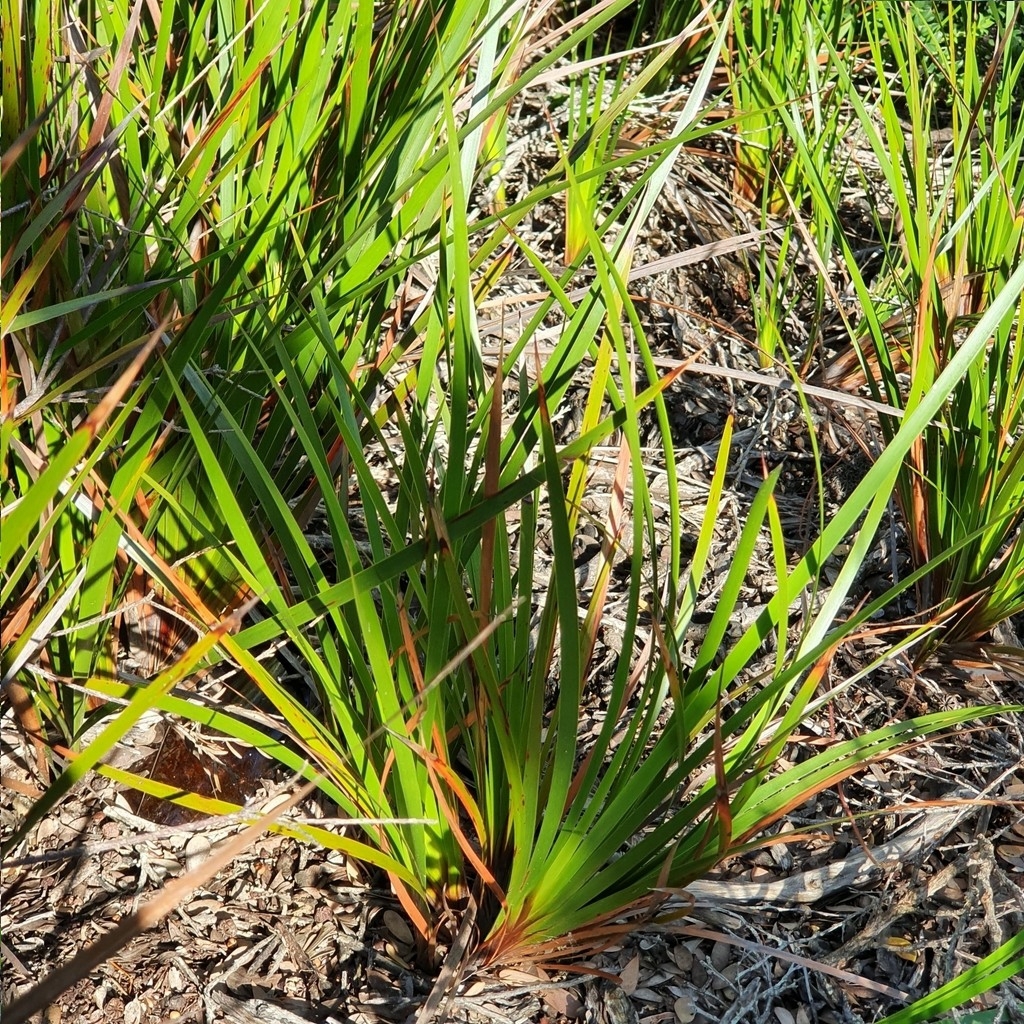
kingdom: Plantae
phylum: Tracheophyta
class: Liliopsida
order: Poales
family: Cyperaceae
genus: Lepidosperma
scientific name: Lepidosperma laterale
